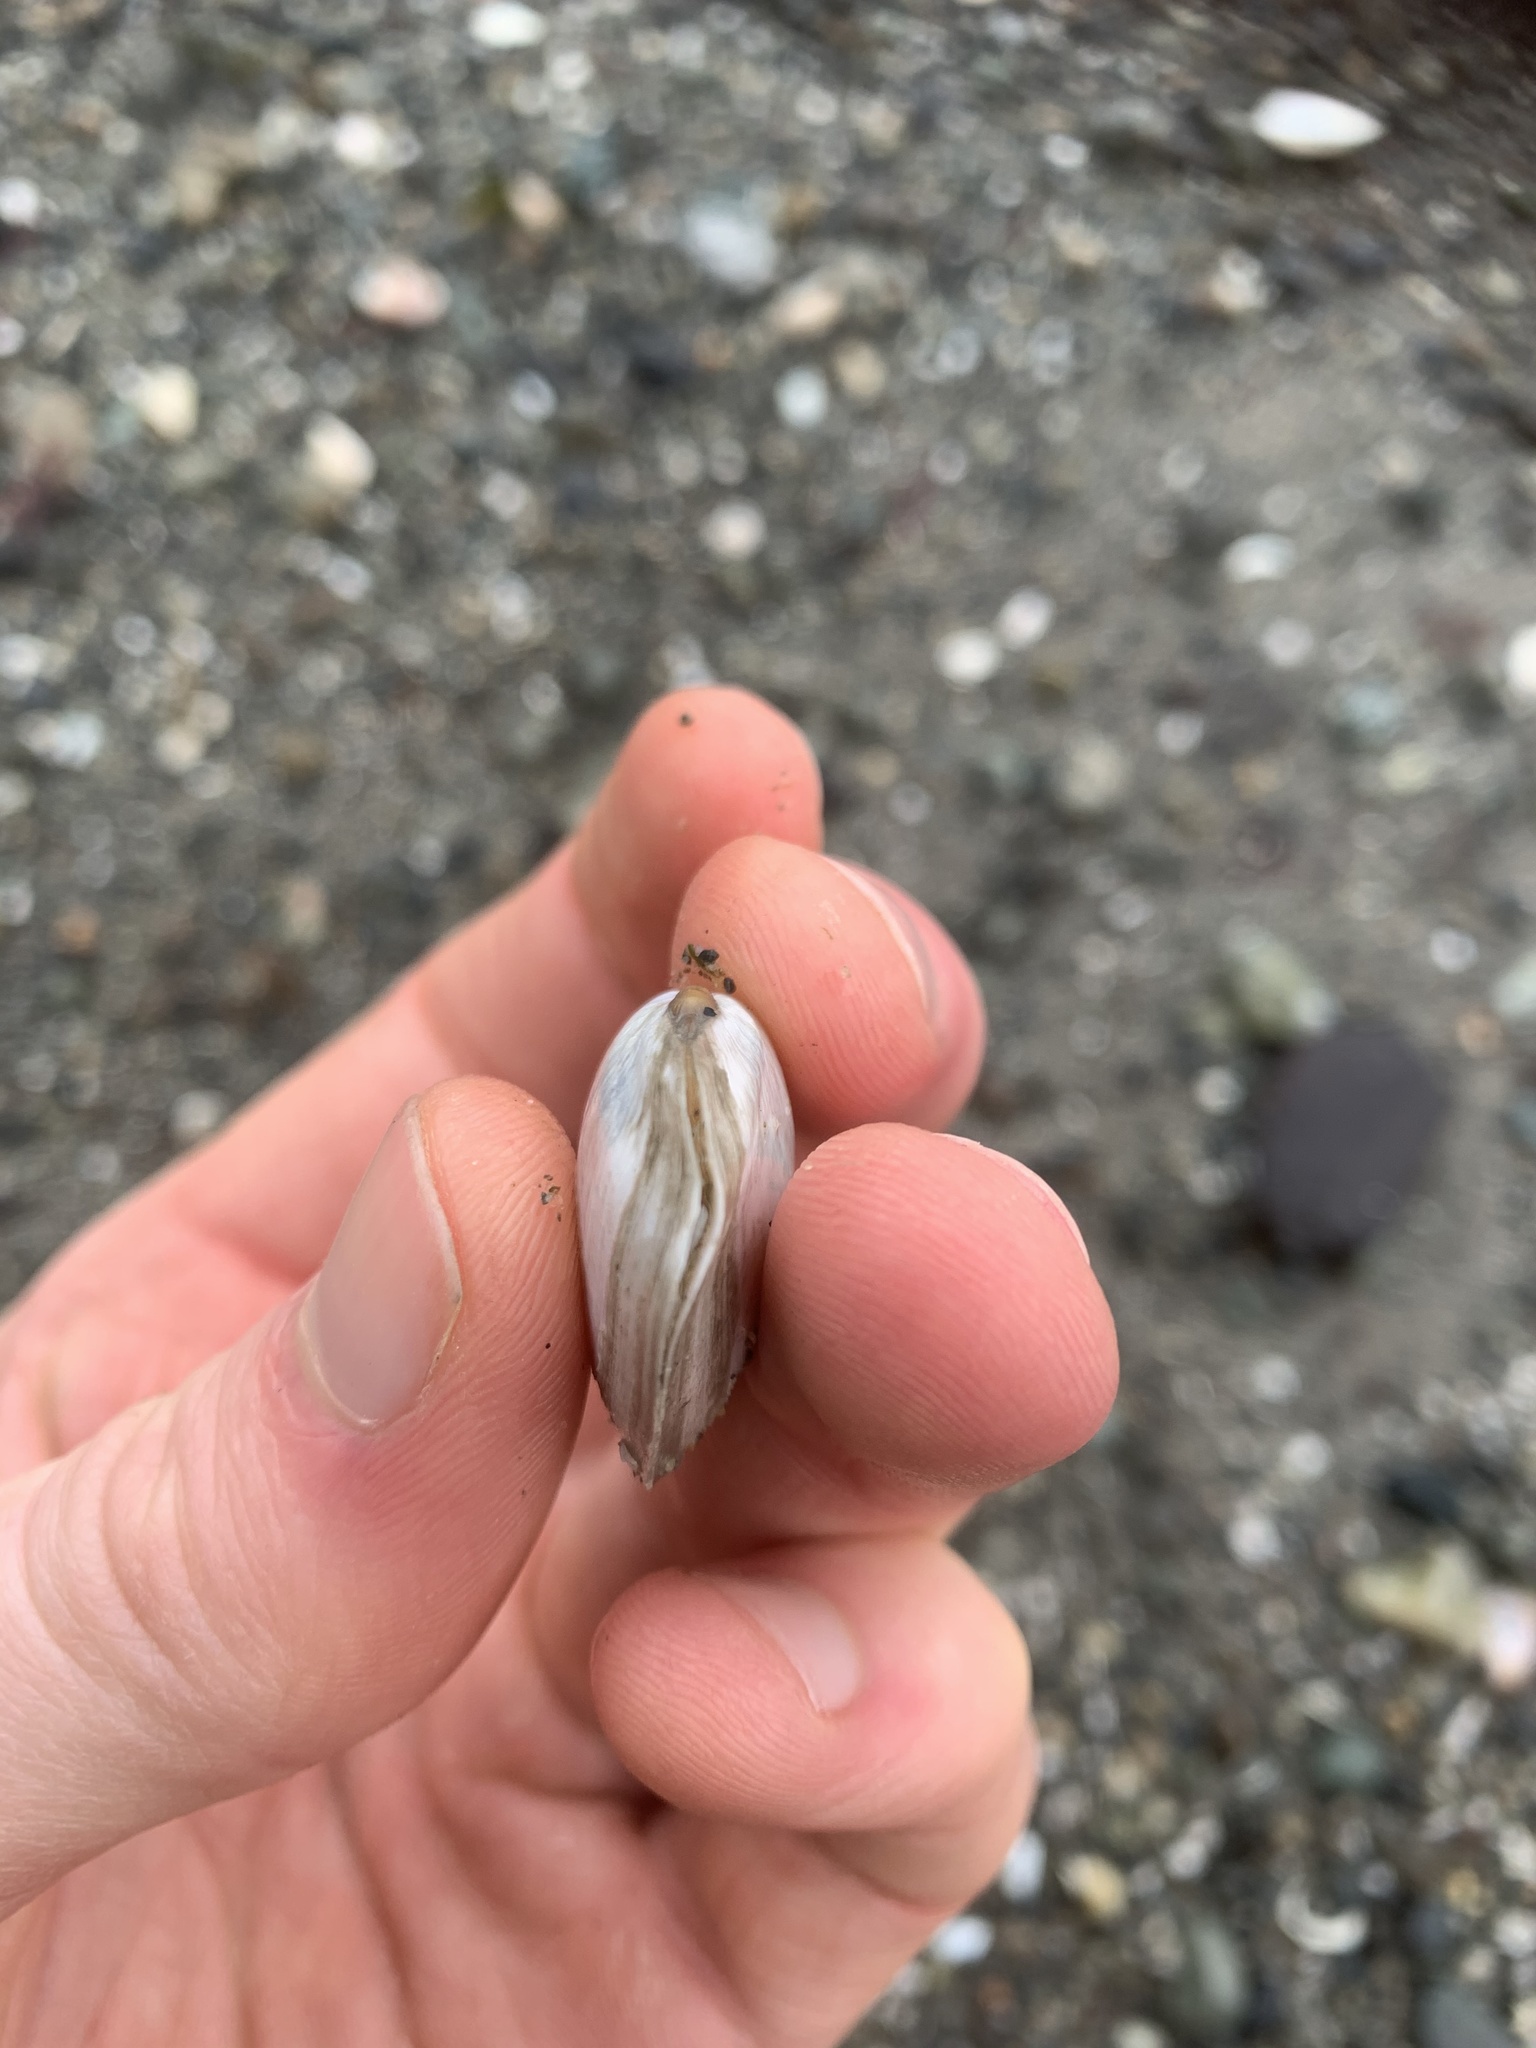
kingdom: Animalia
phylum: Mollusca
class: Bivalvia
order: Cardiida
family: Tellinidae
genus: Macoma
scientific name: Macoma nasuta
